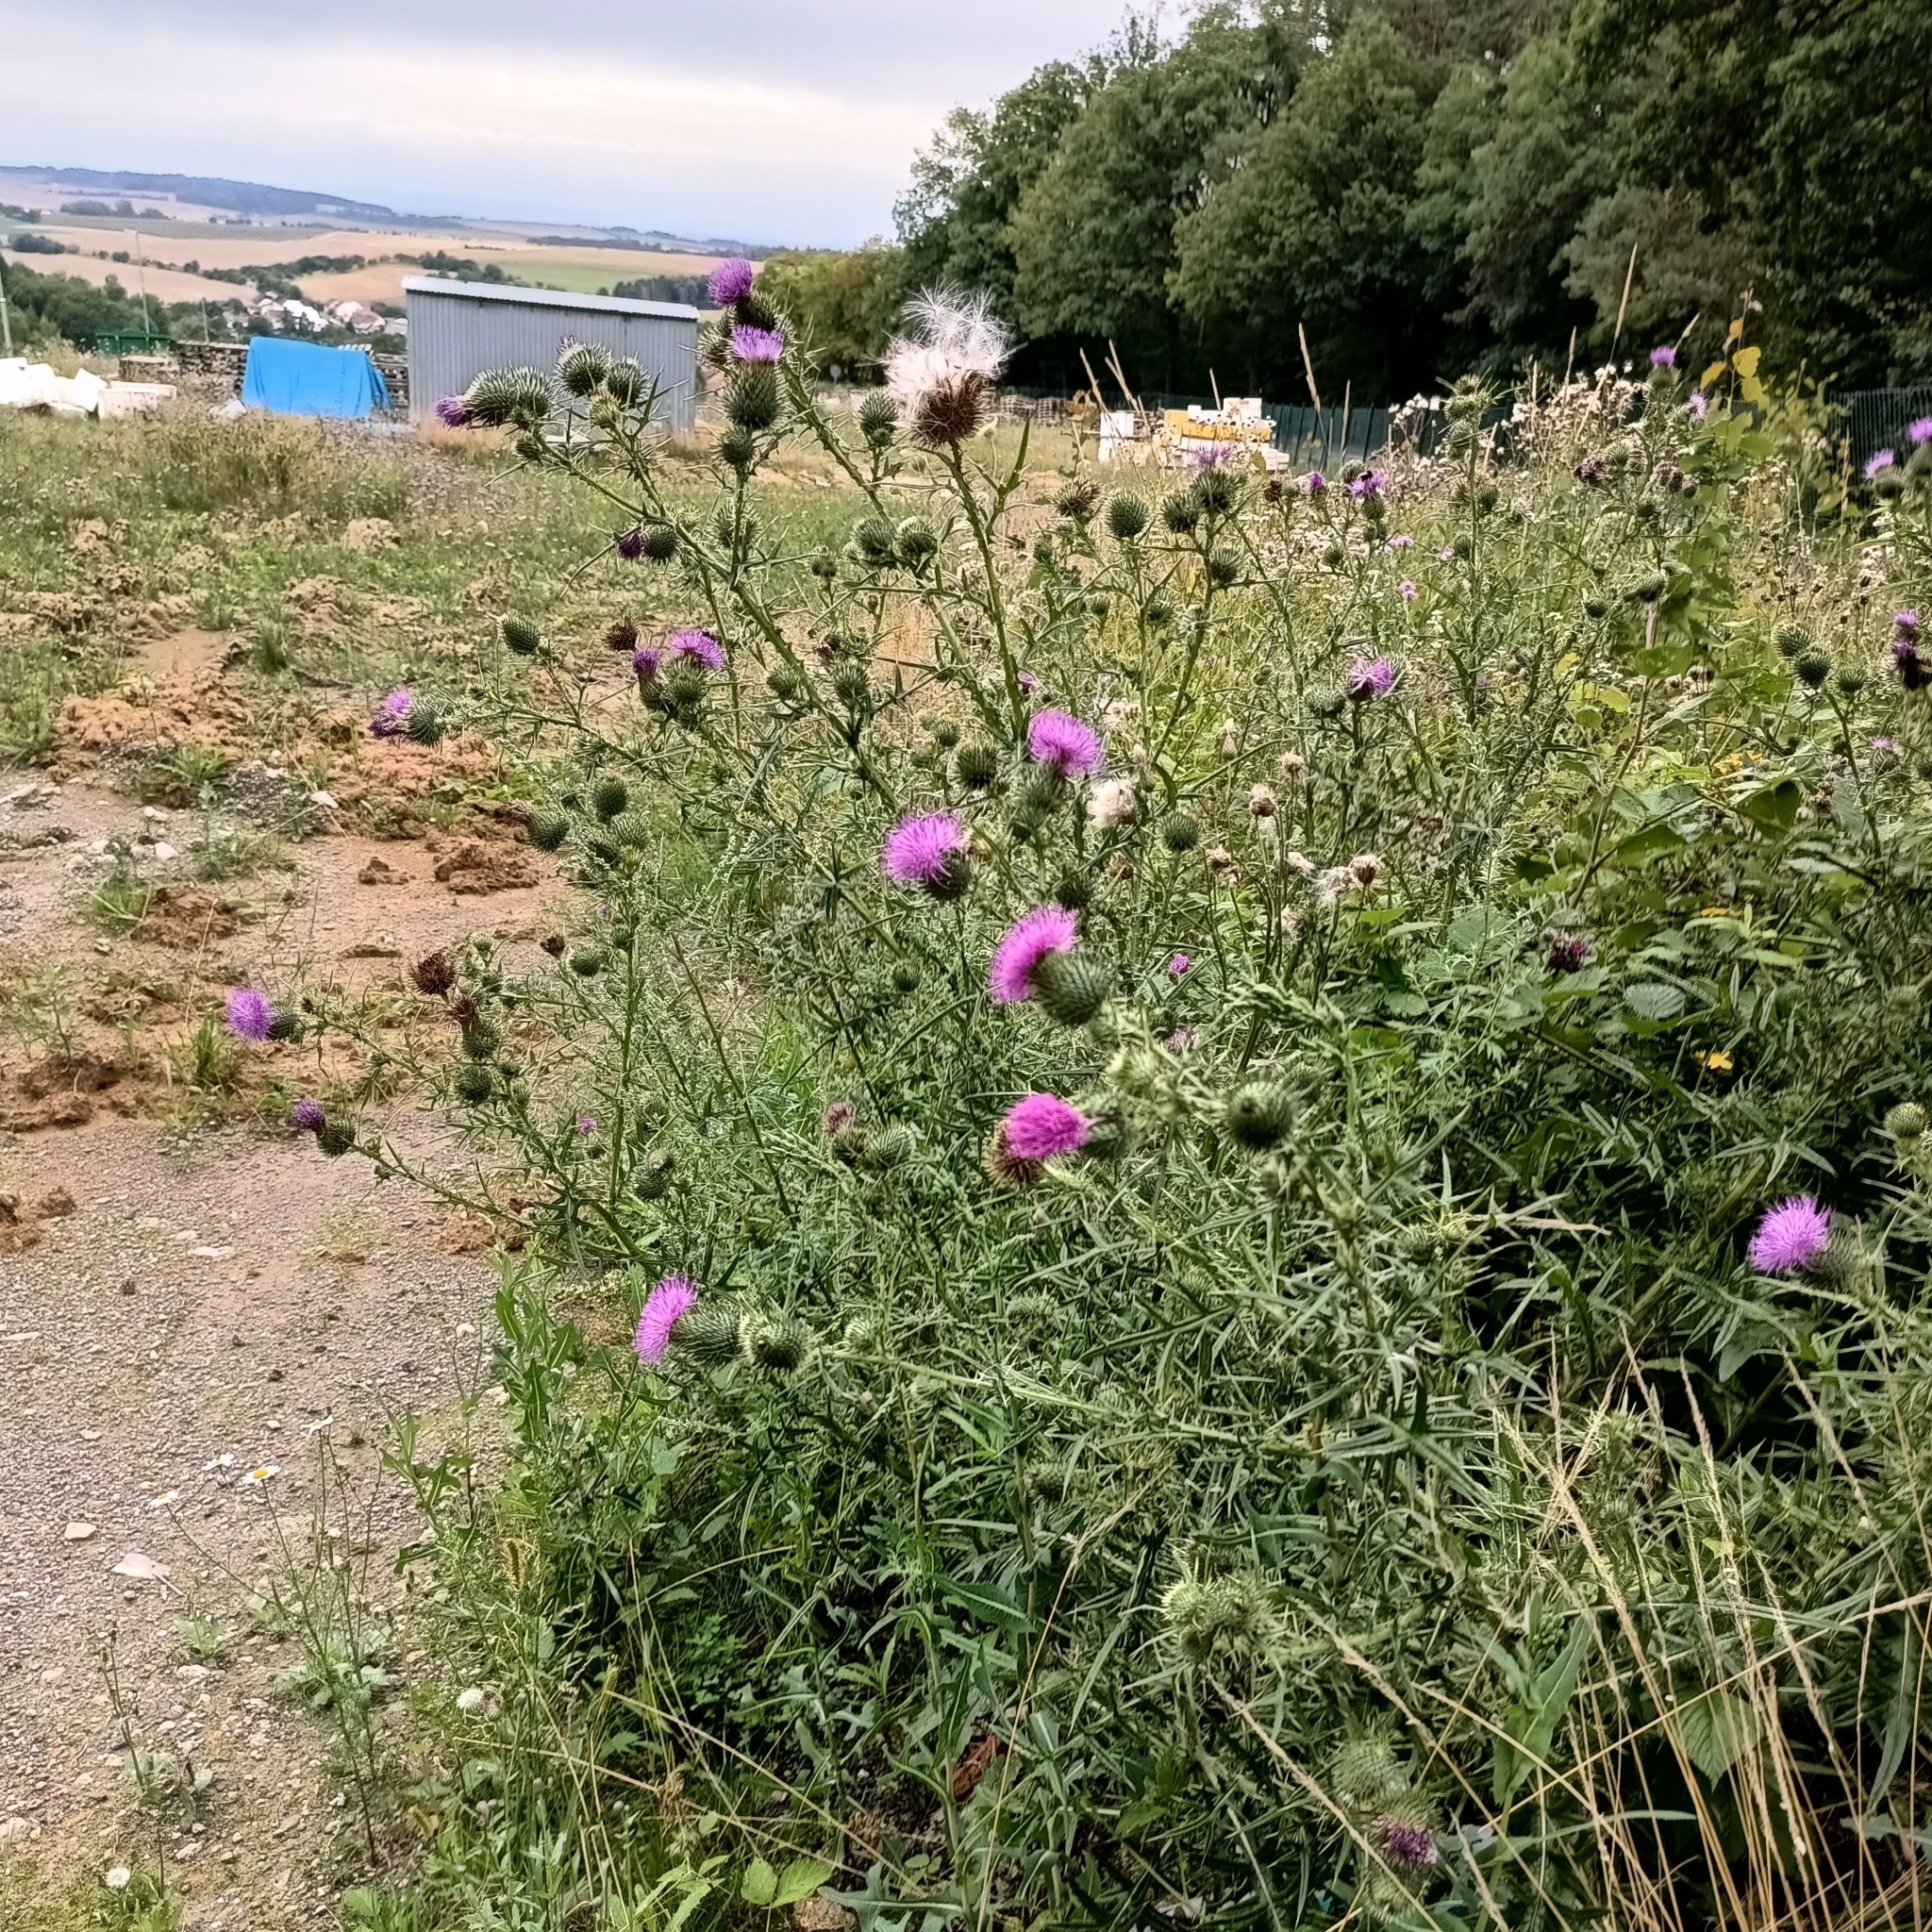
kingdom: Plantae
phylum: Tracheophyta
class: Magnoliopsida
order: Asterales
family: Asteraceae
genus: Cirsium
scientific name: Cirsium vulgare
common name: Bull thistle
